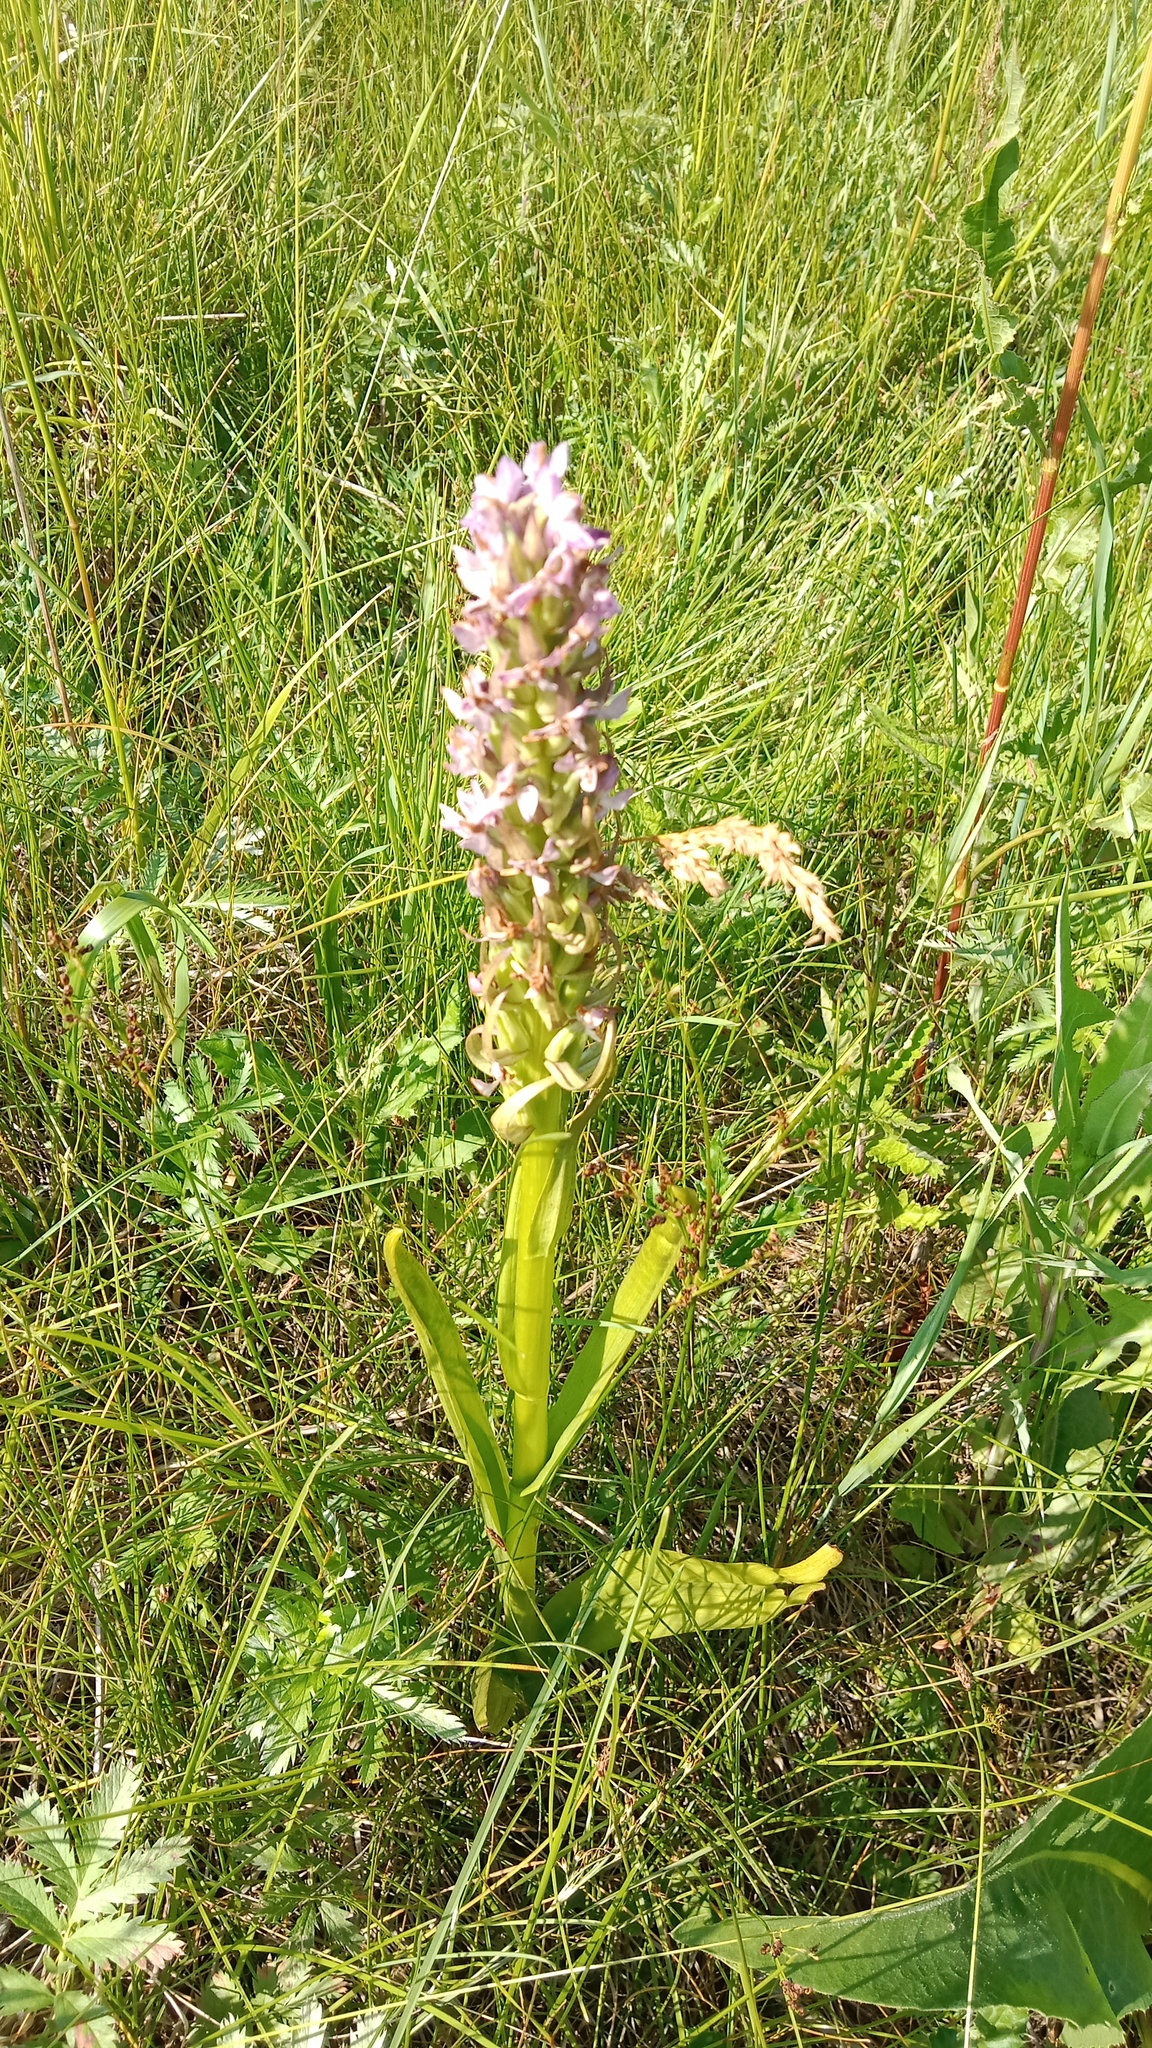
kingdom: Plantae
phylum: Tracheophyta
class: Liliopsida
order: Asparagales
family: Orchidaceae
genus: Dactylorhiza
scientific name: Dactylorhiza incarnata
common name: Early marsh-orchid
